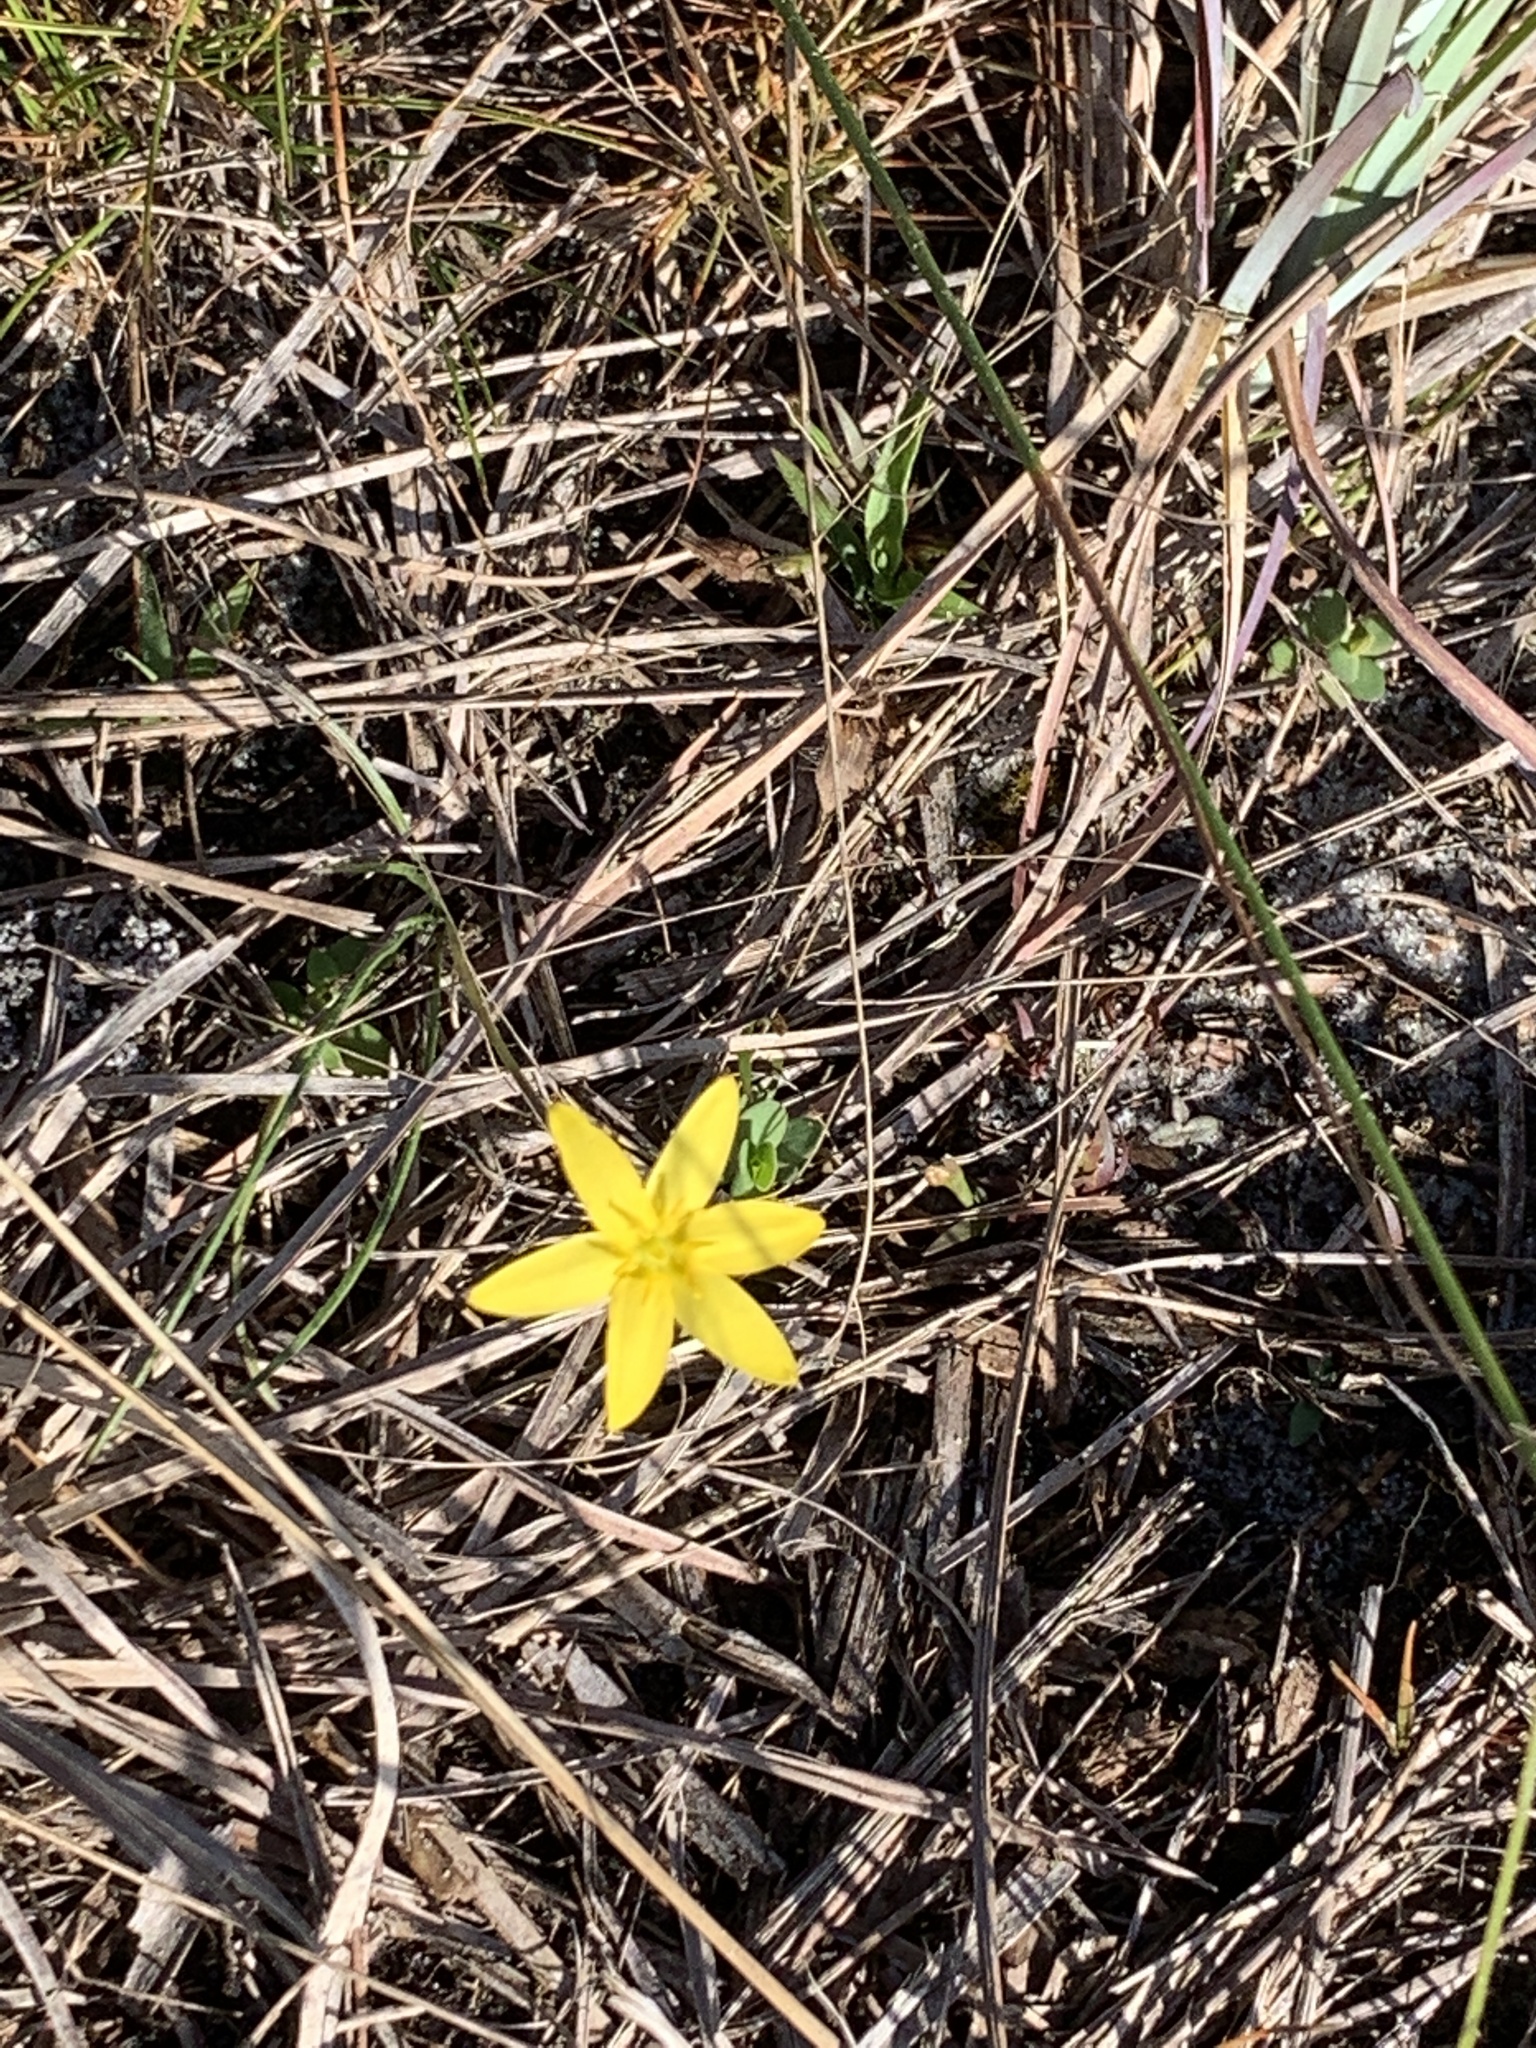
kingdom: Plantae
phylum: Tracheophyta
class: Liliopsida
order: Asparagales
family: Hypoxidaceae
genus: Hypoxis
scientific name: Hypoxis juncea
